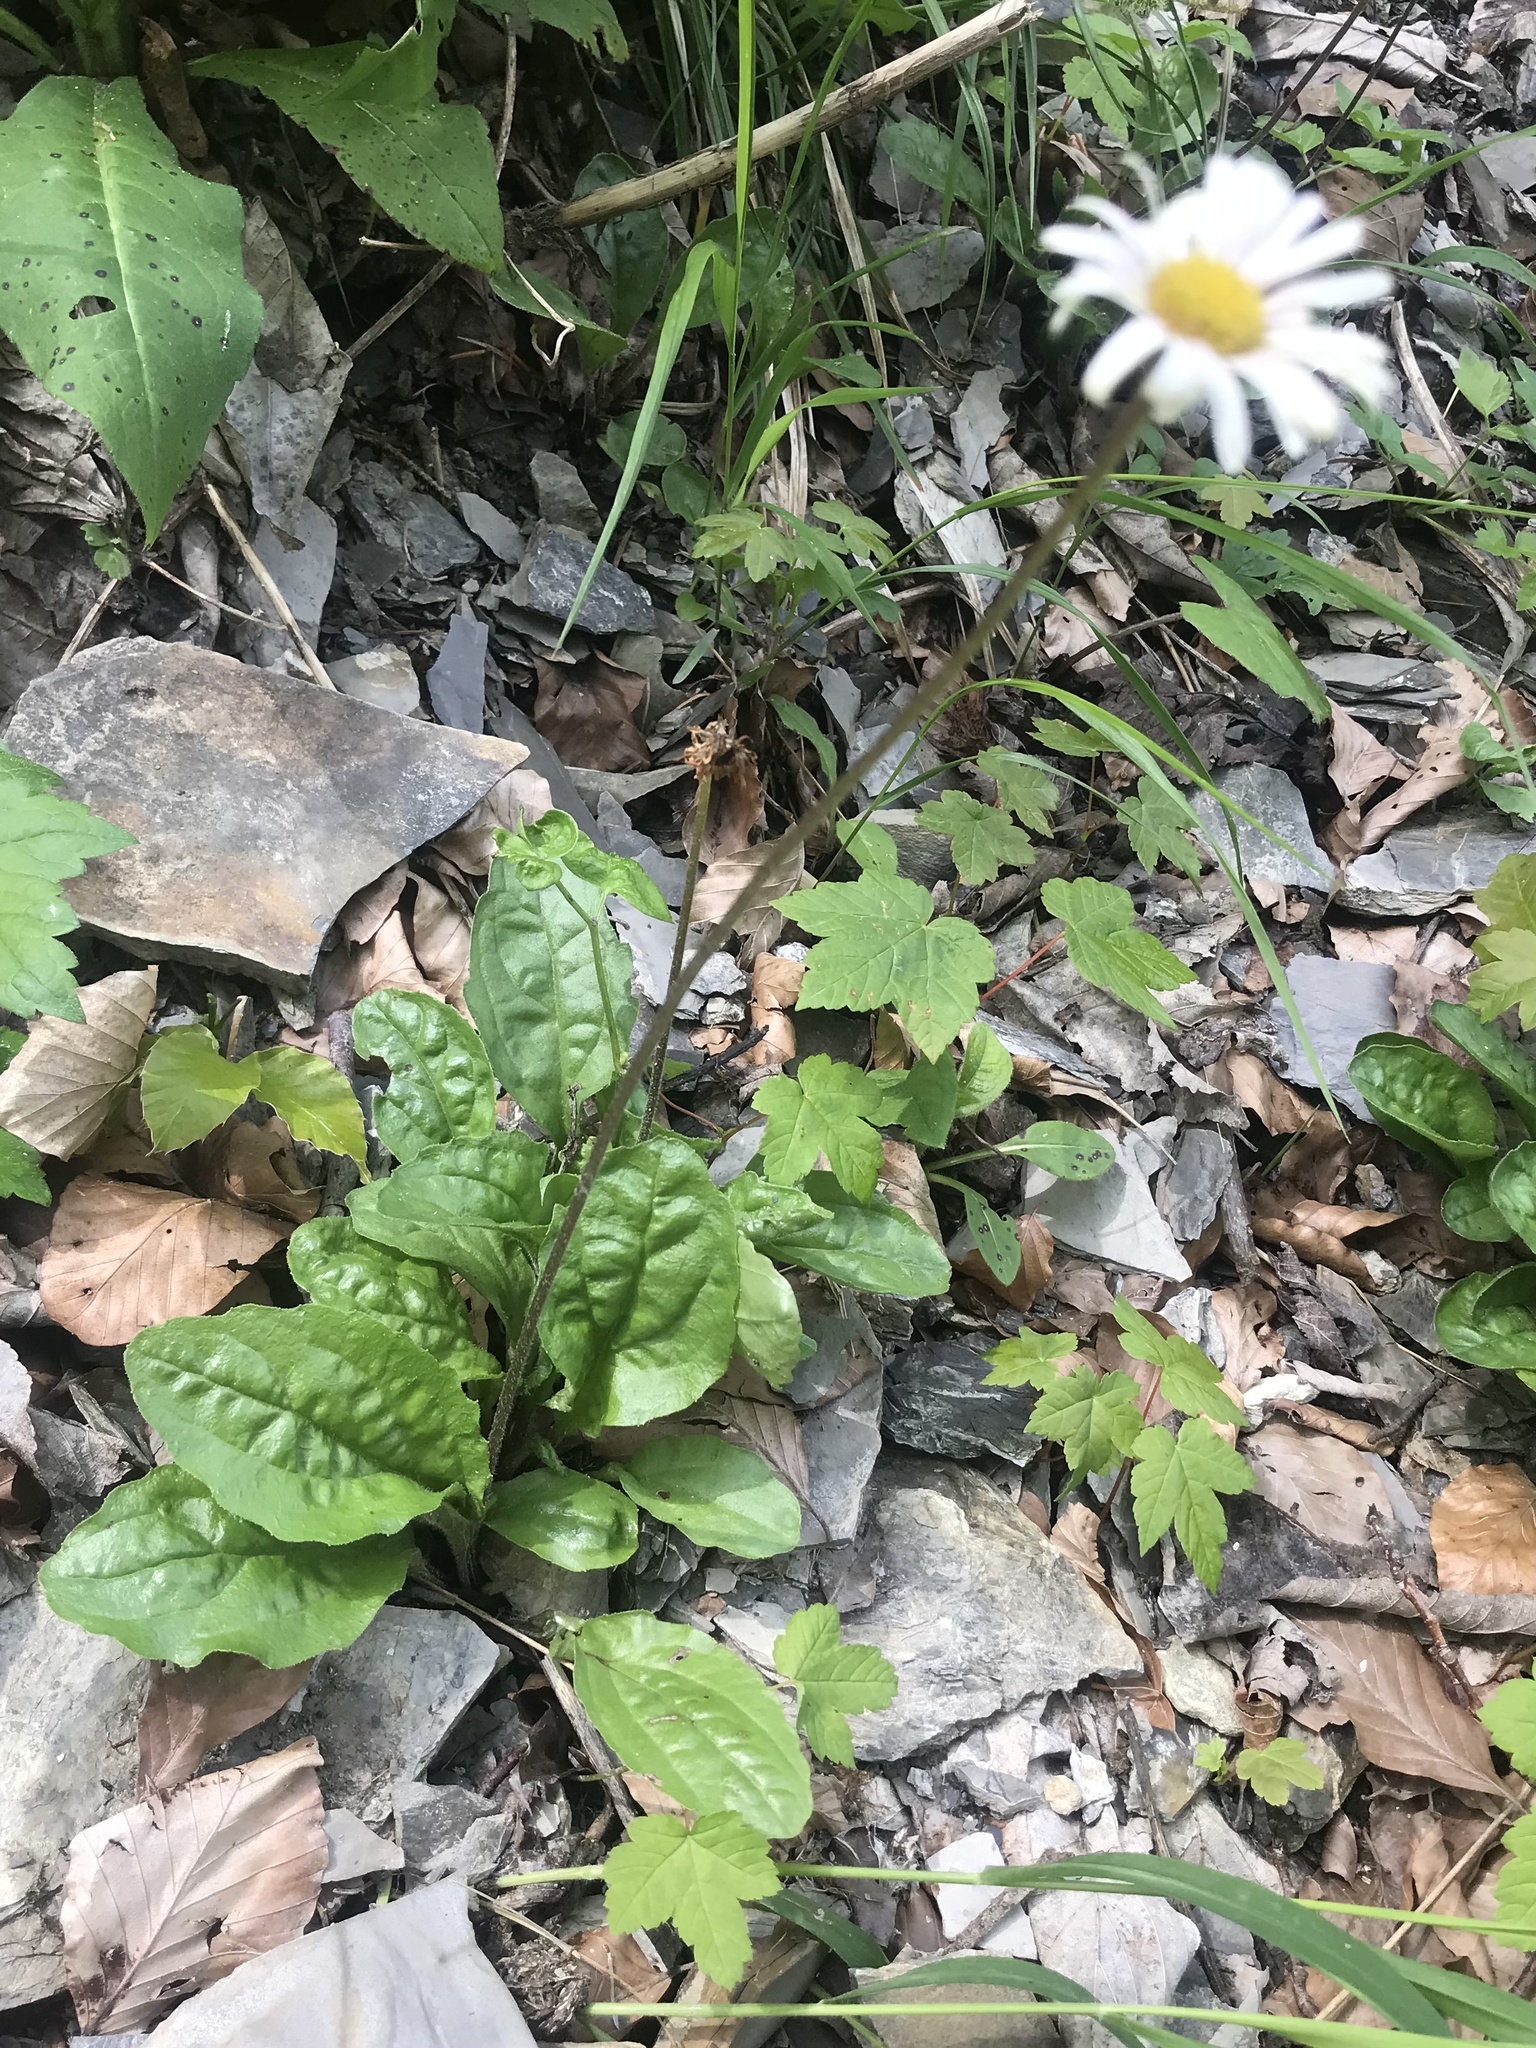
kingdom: Plantae
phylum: Tracheophyta
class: Magnoliopsida
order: Asterales
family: Asteraceae
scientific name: Asteraceae
